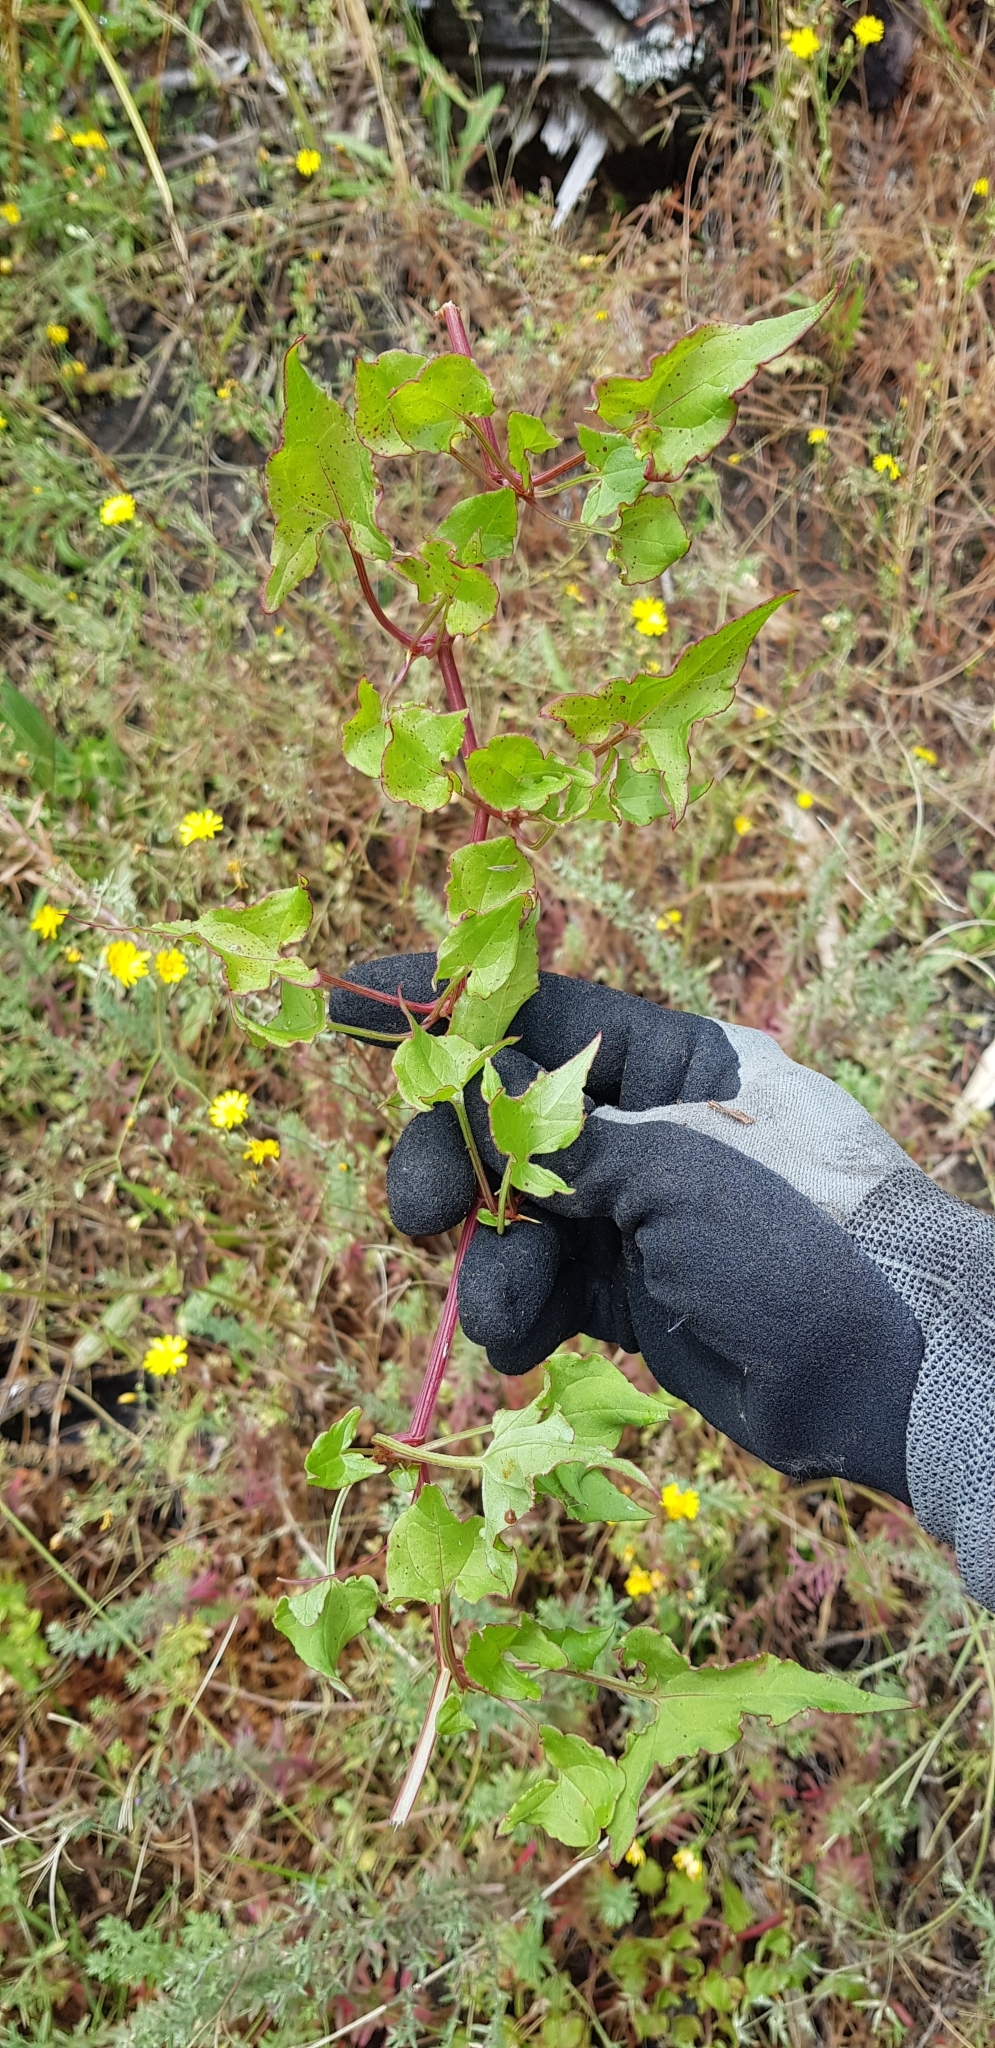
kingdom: Plantae
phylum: Tracheophyta
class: Magnoliopsida
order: Caryophyllales
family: Polygonaceae
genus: Rumex
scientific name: Rumex sagittatus
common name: Climbing dock
